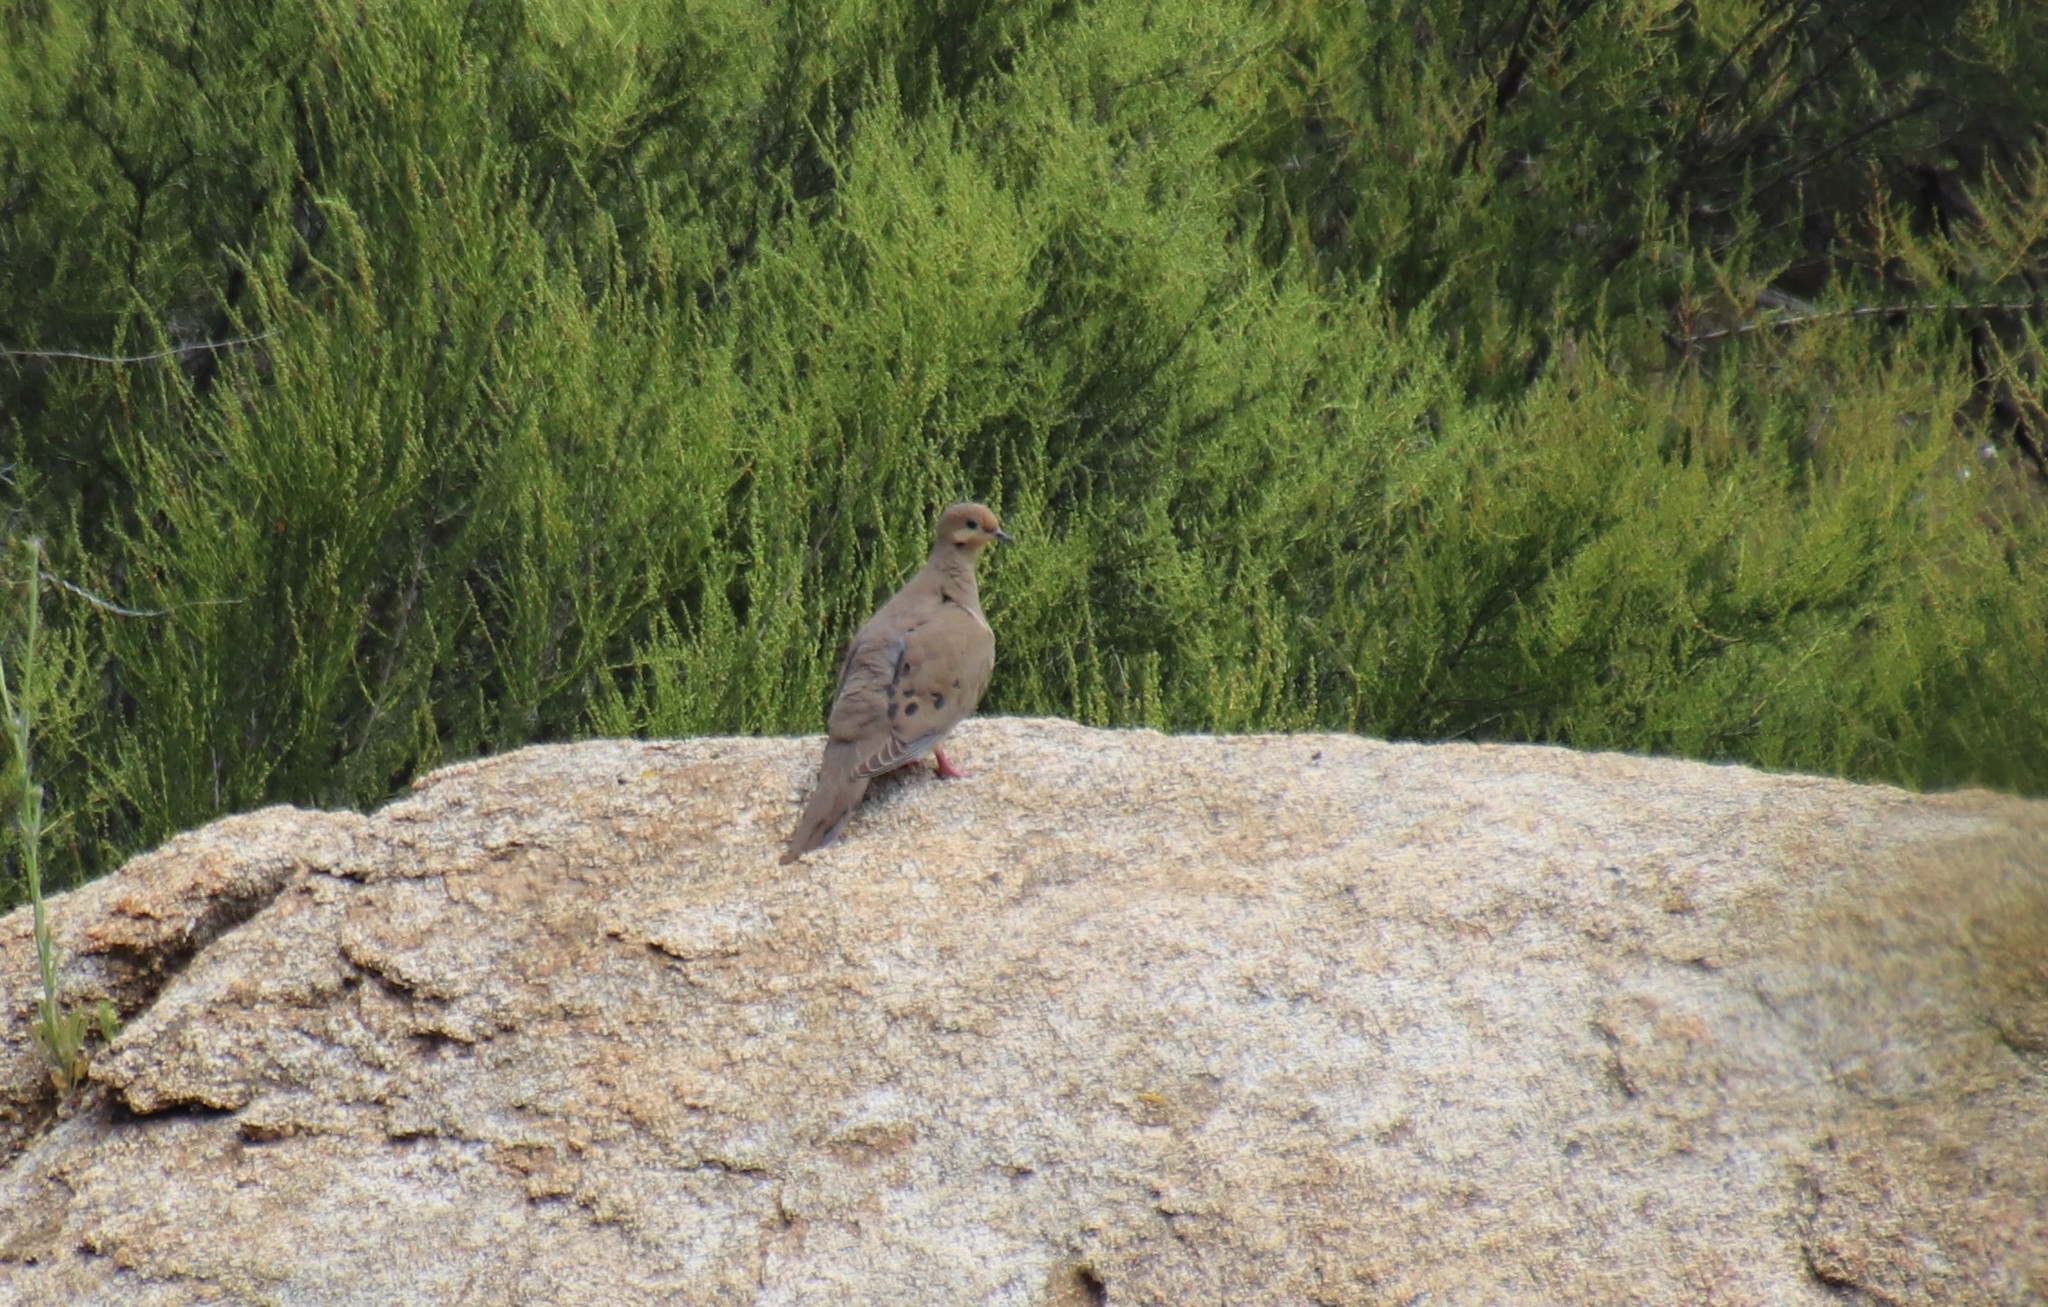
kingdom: Animalia
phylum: Chordata
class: Aves
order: Columbiformes
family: Columbidae
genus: Zenaida
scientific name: Zenaida macroura
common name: Mourning dove
